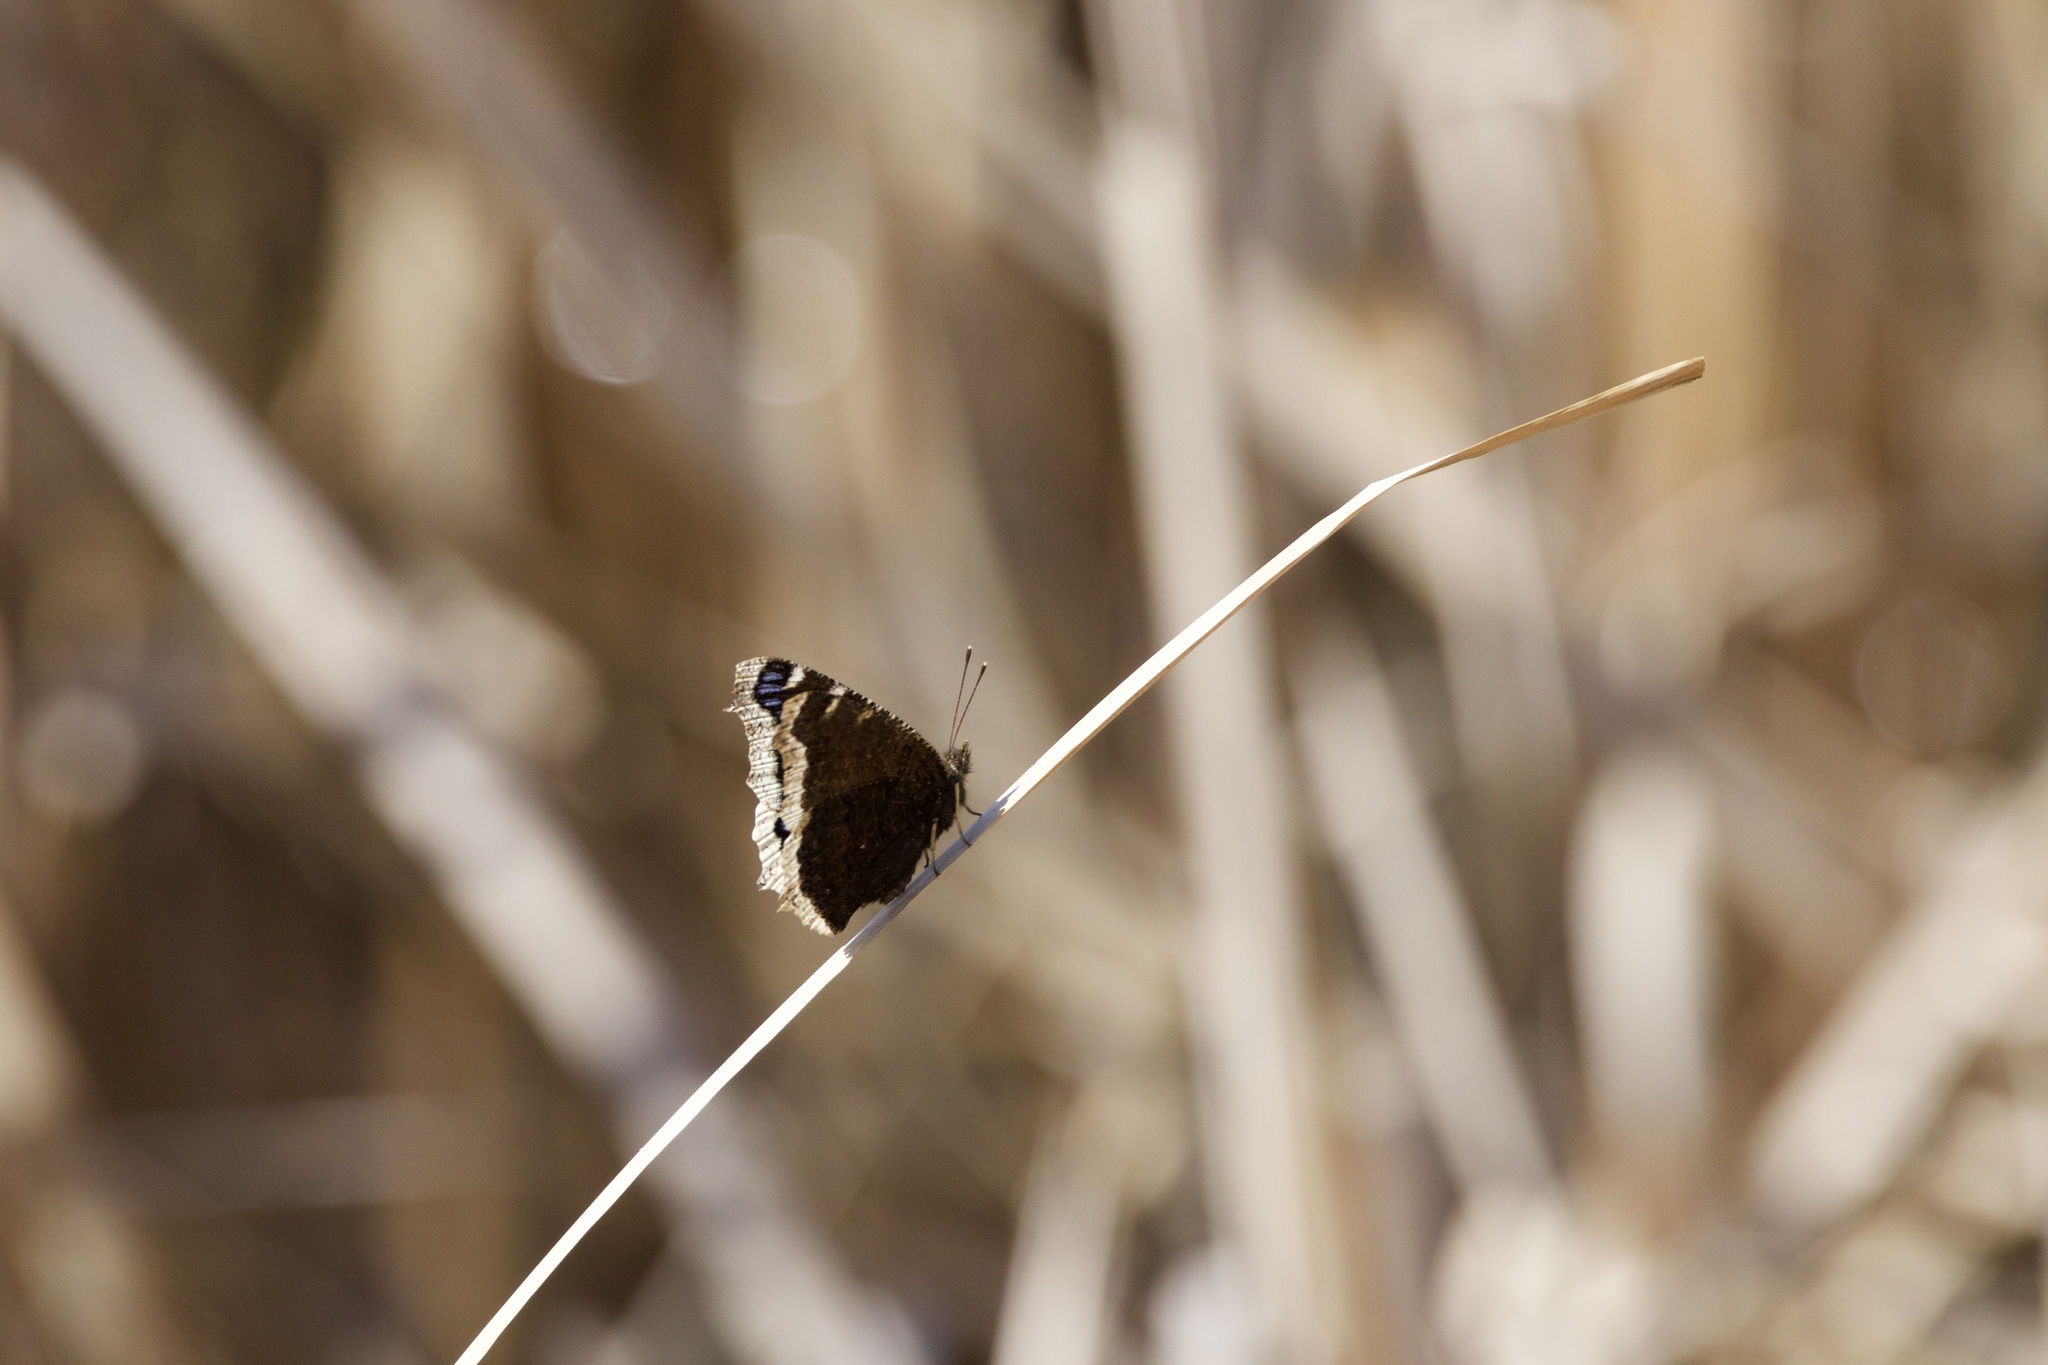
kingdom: Animalia
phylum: Arthropoda
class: Insecta
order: Lepidoptera
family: Nymphalidae
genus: Nymphalis
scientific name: Nymphalis antiopa
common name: Camberwell beauty
